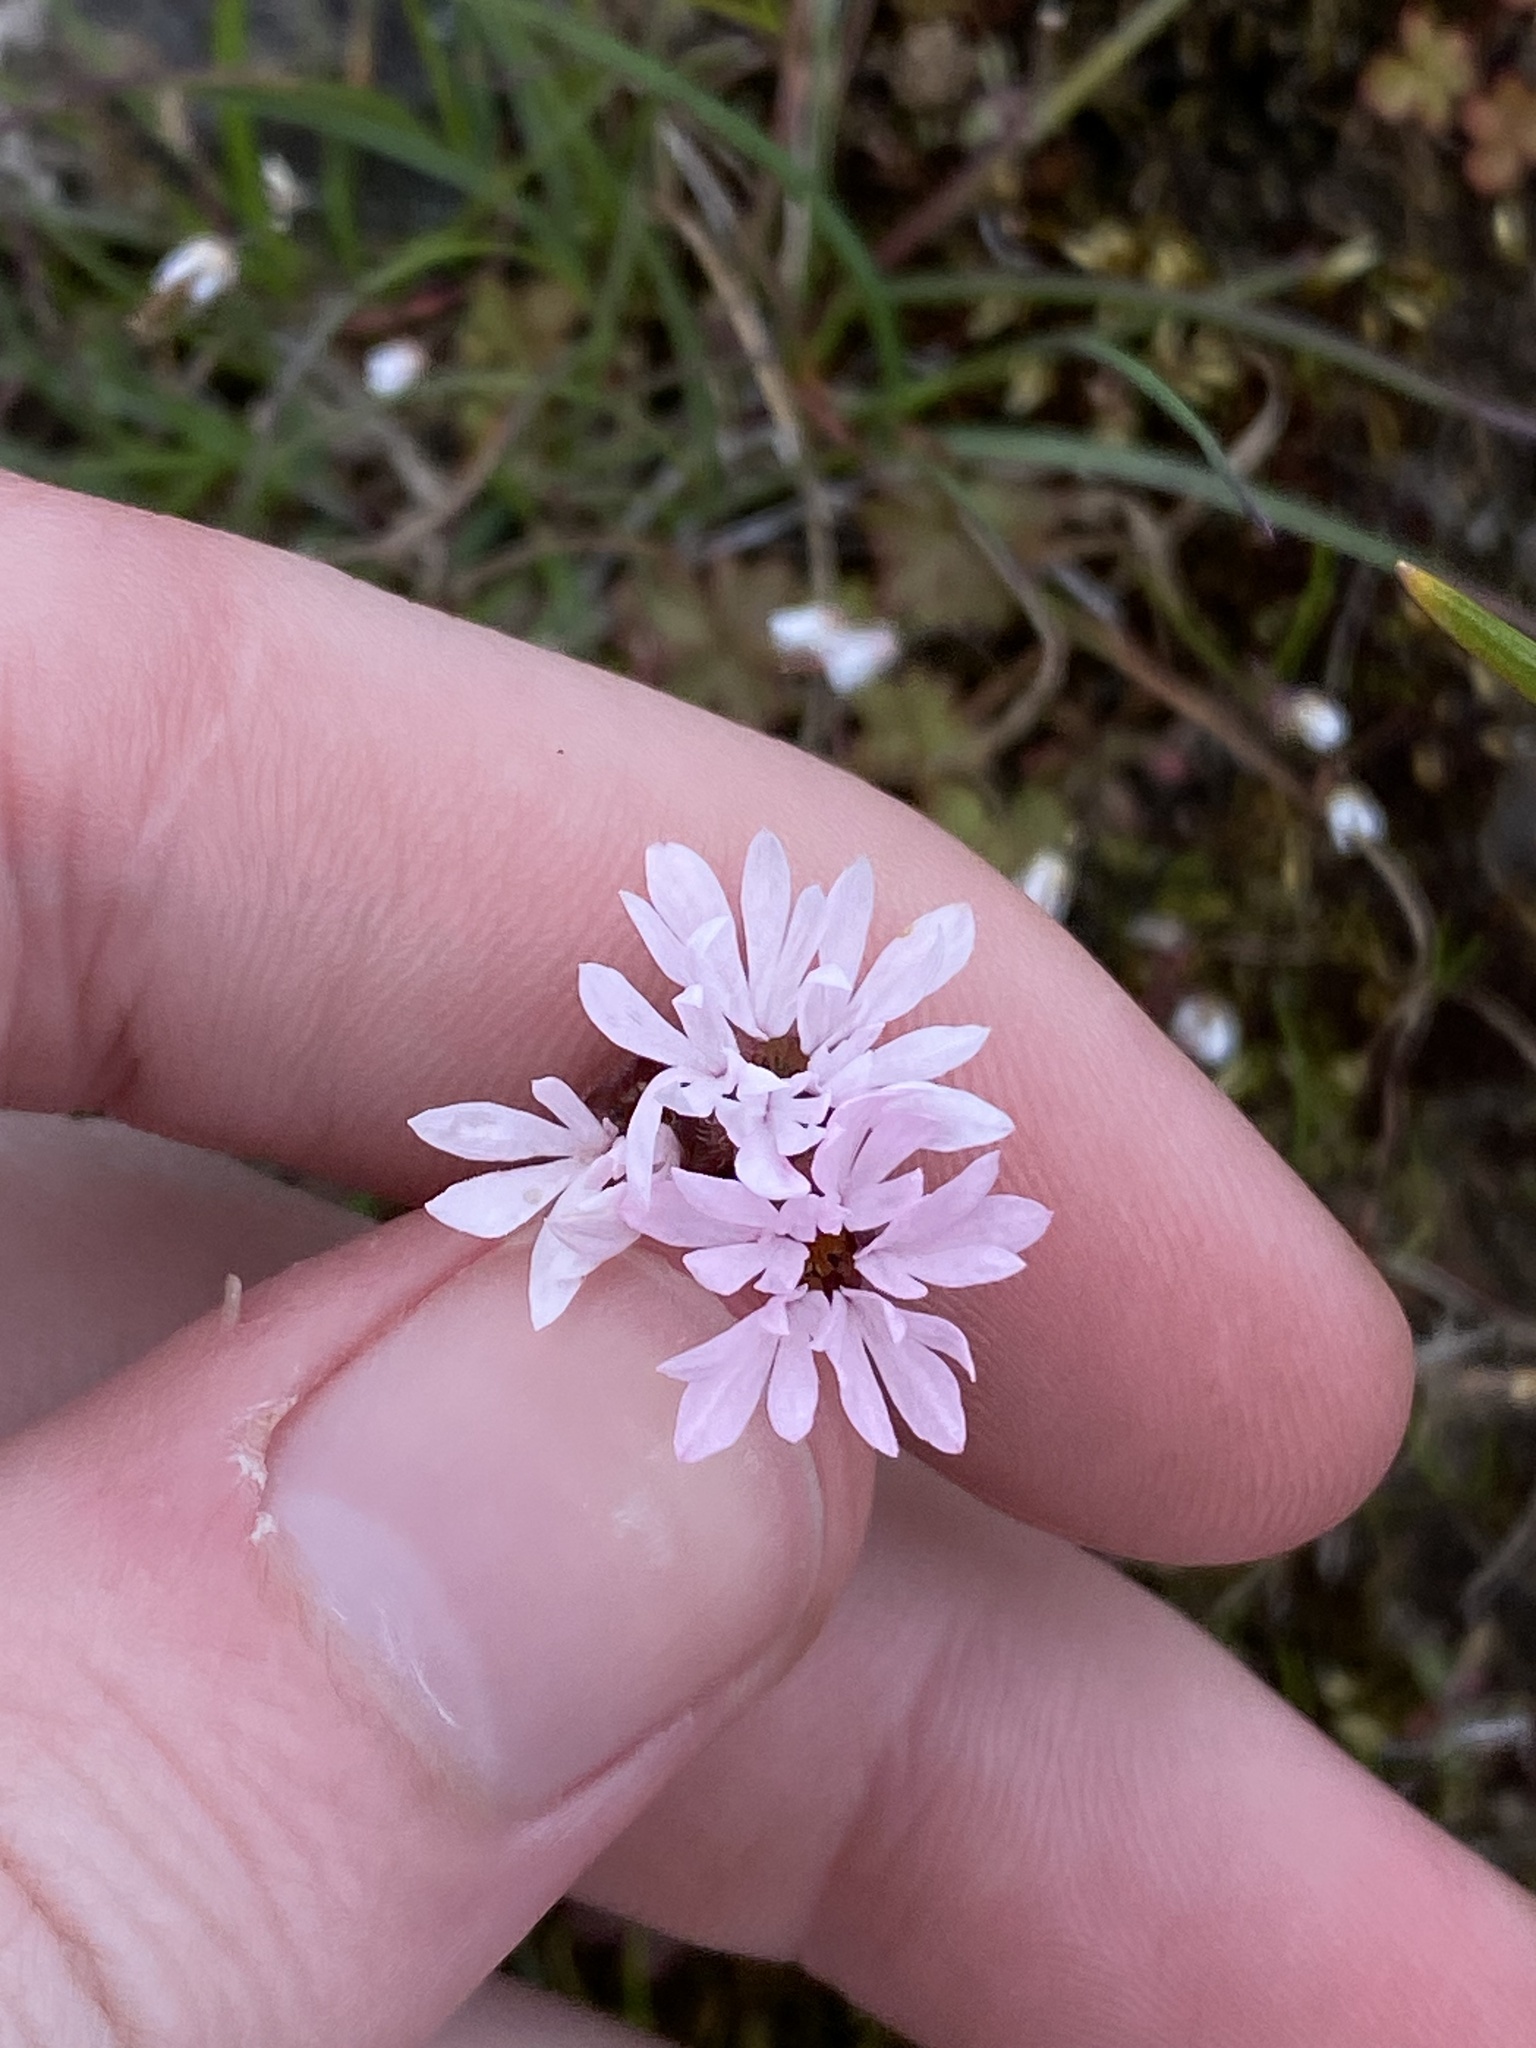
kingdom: Plantae
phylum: Tracheophyta
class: Magnoliopsida
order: Saxifragales
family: Saxifragaceae
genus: Lithophragma
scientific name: Lithophragma glabrum
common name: Bulbous prairie-star
